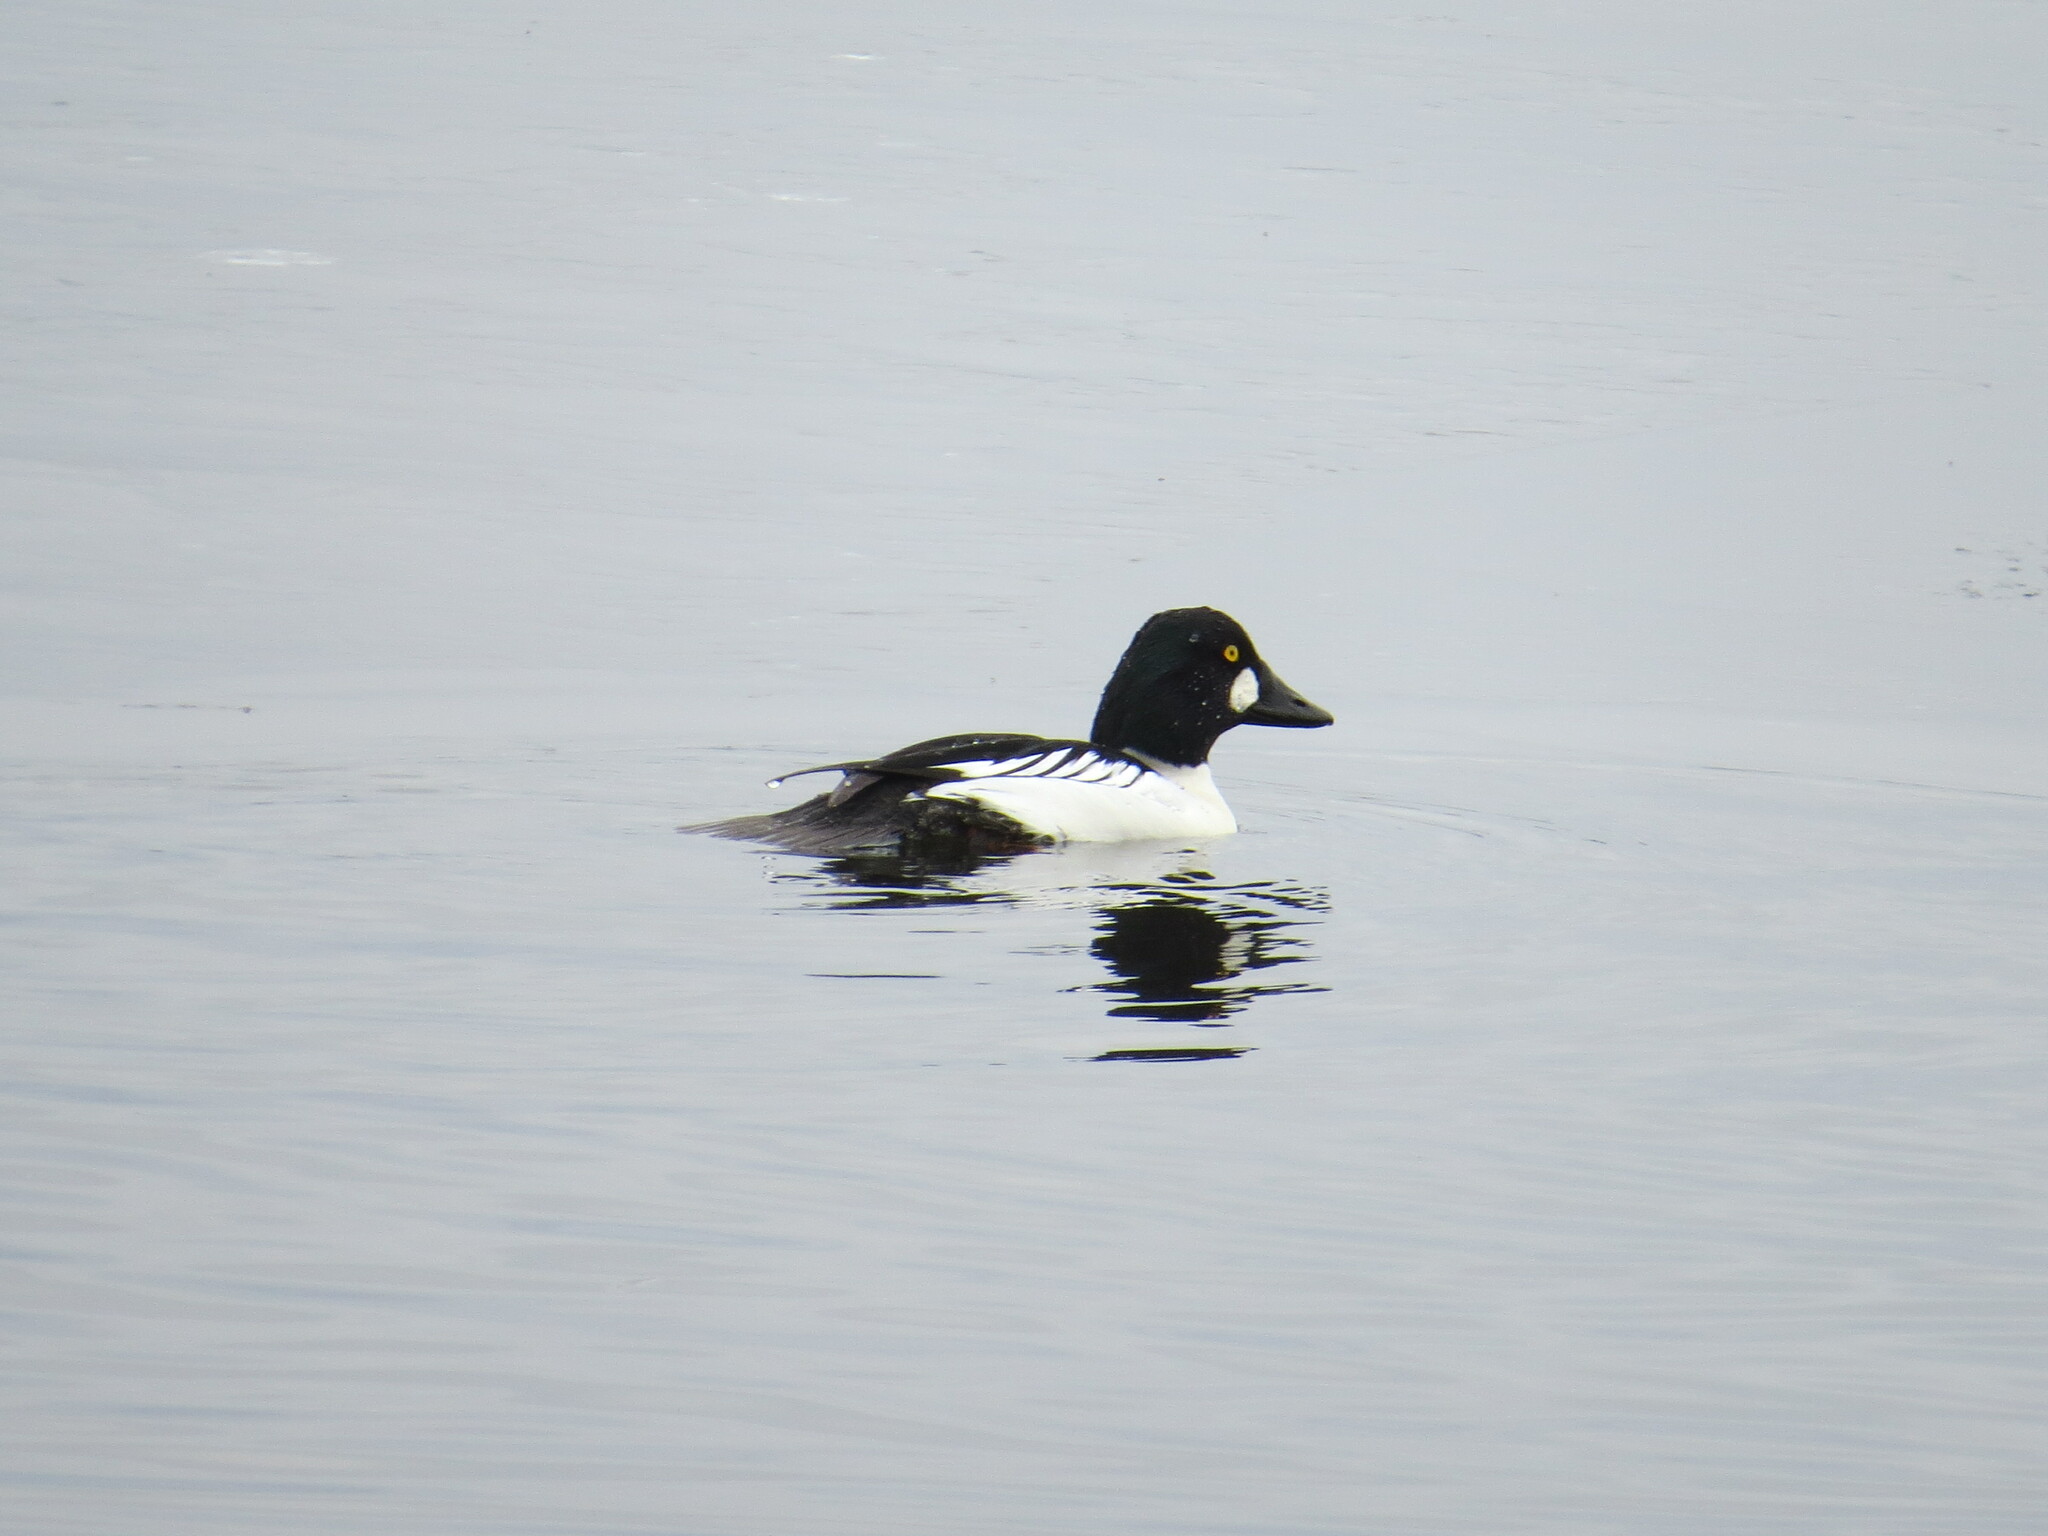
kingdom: Animalia
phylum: Chordata
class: Aves
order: Anseriformes
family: Anatidae
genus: Bucephala
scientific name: Bucephala clangula
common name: Common goldeneye
